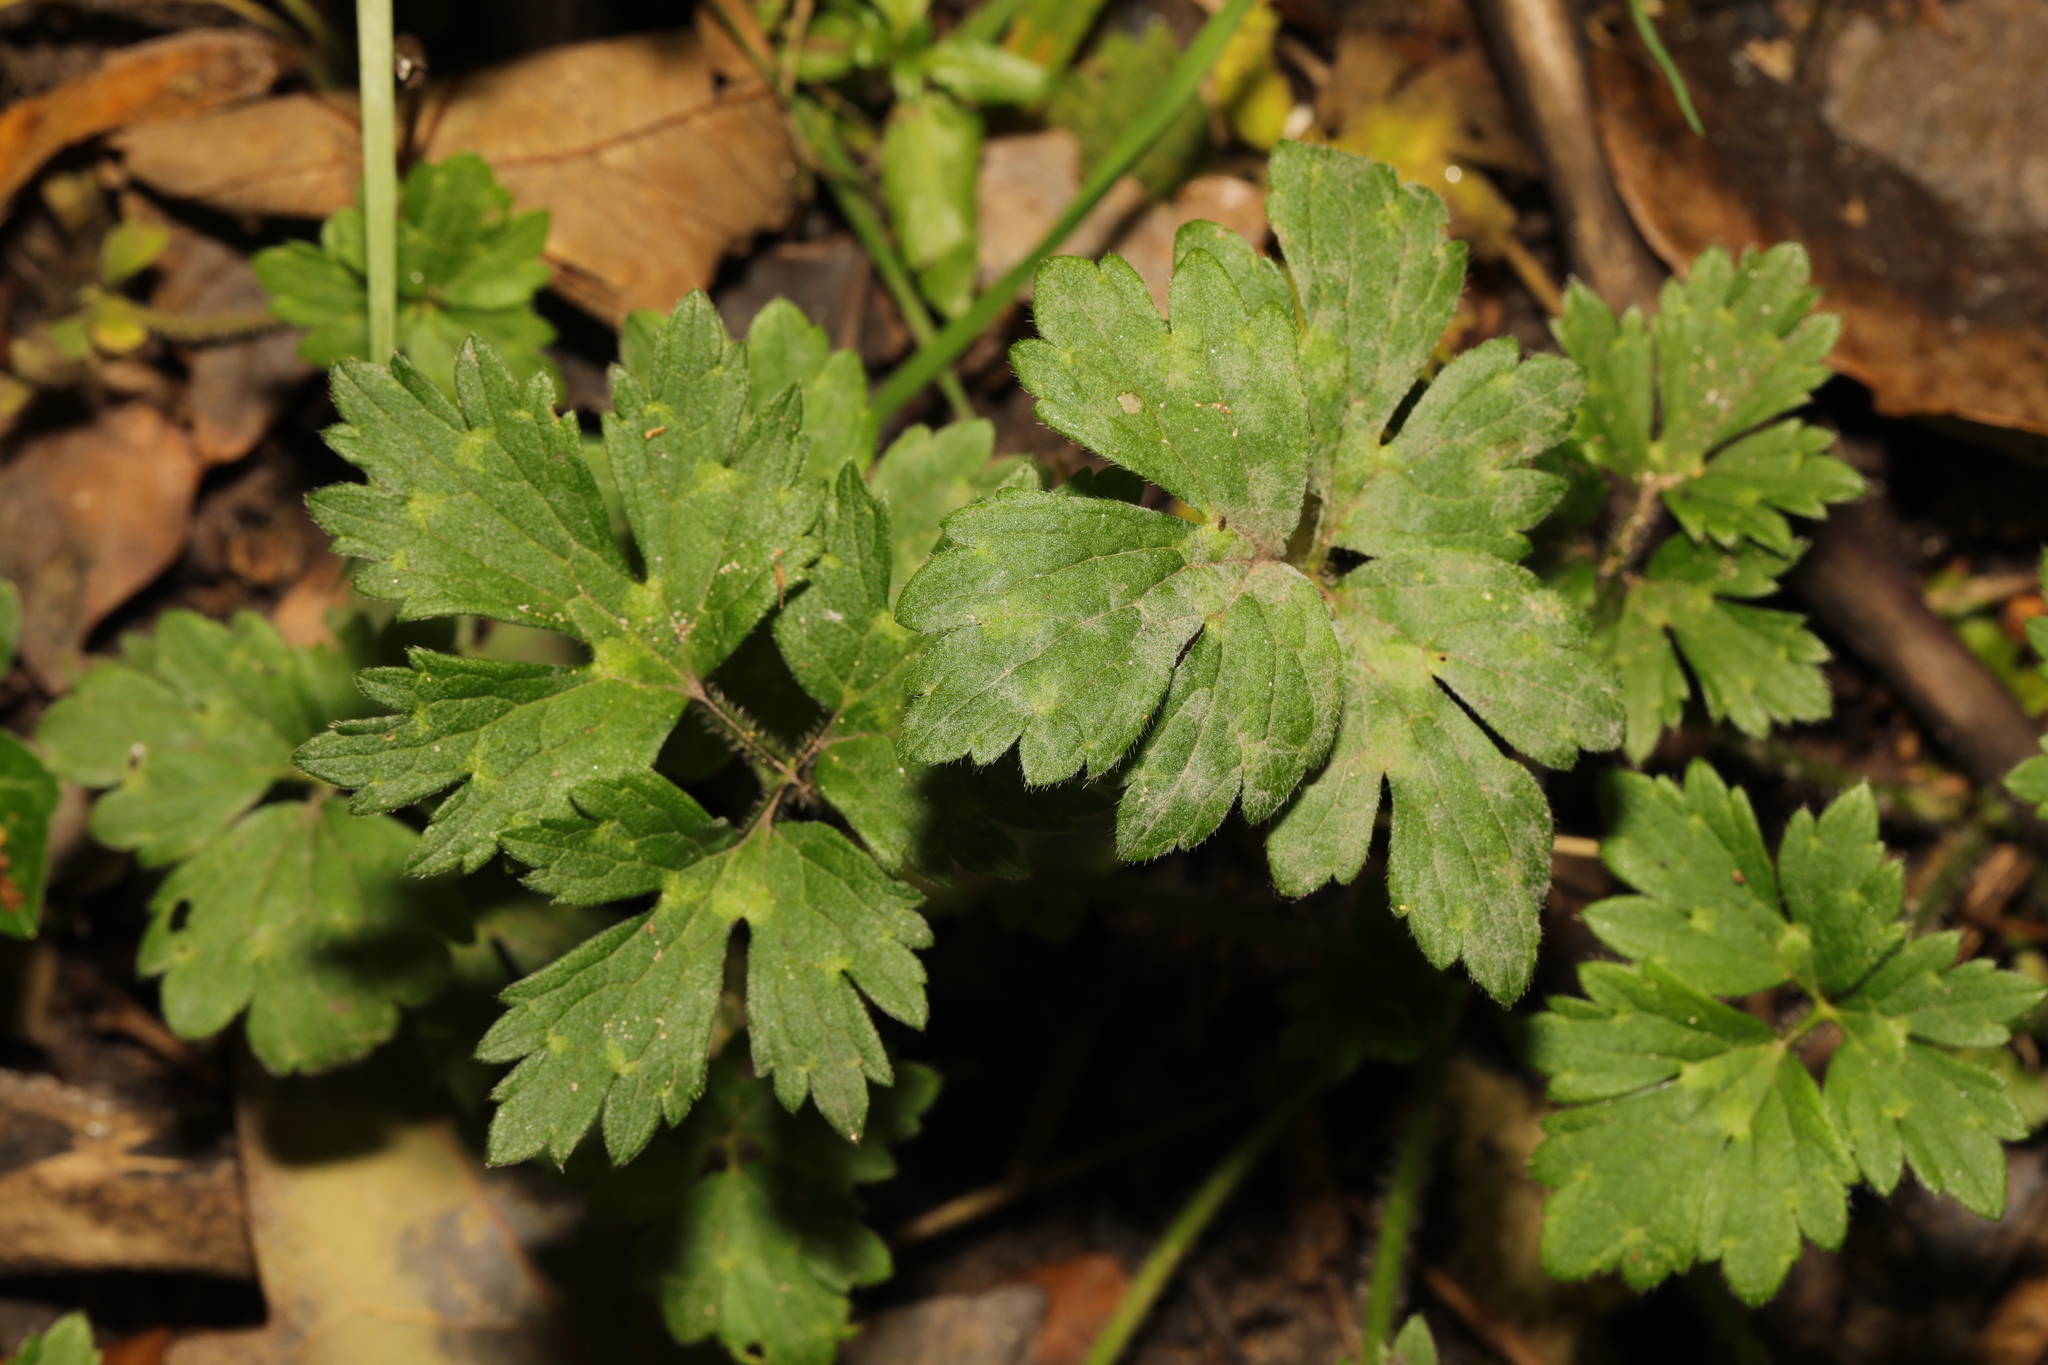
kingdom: Plantae
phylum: Tracheophyta
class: Magnoliopsida
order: Ranunculales
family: Ranunculaceae
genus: Ranunculus
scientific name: Ranunculus repens
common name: Creeping buttercup
